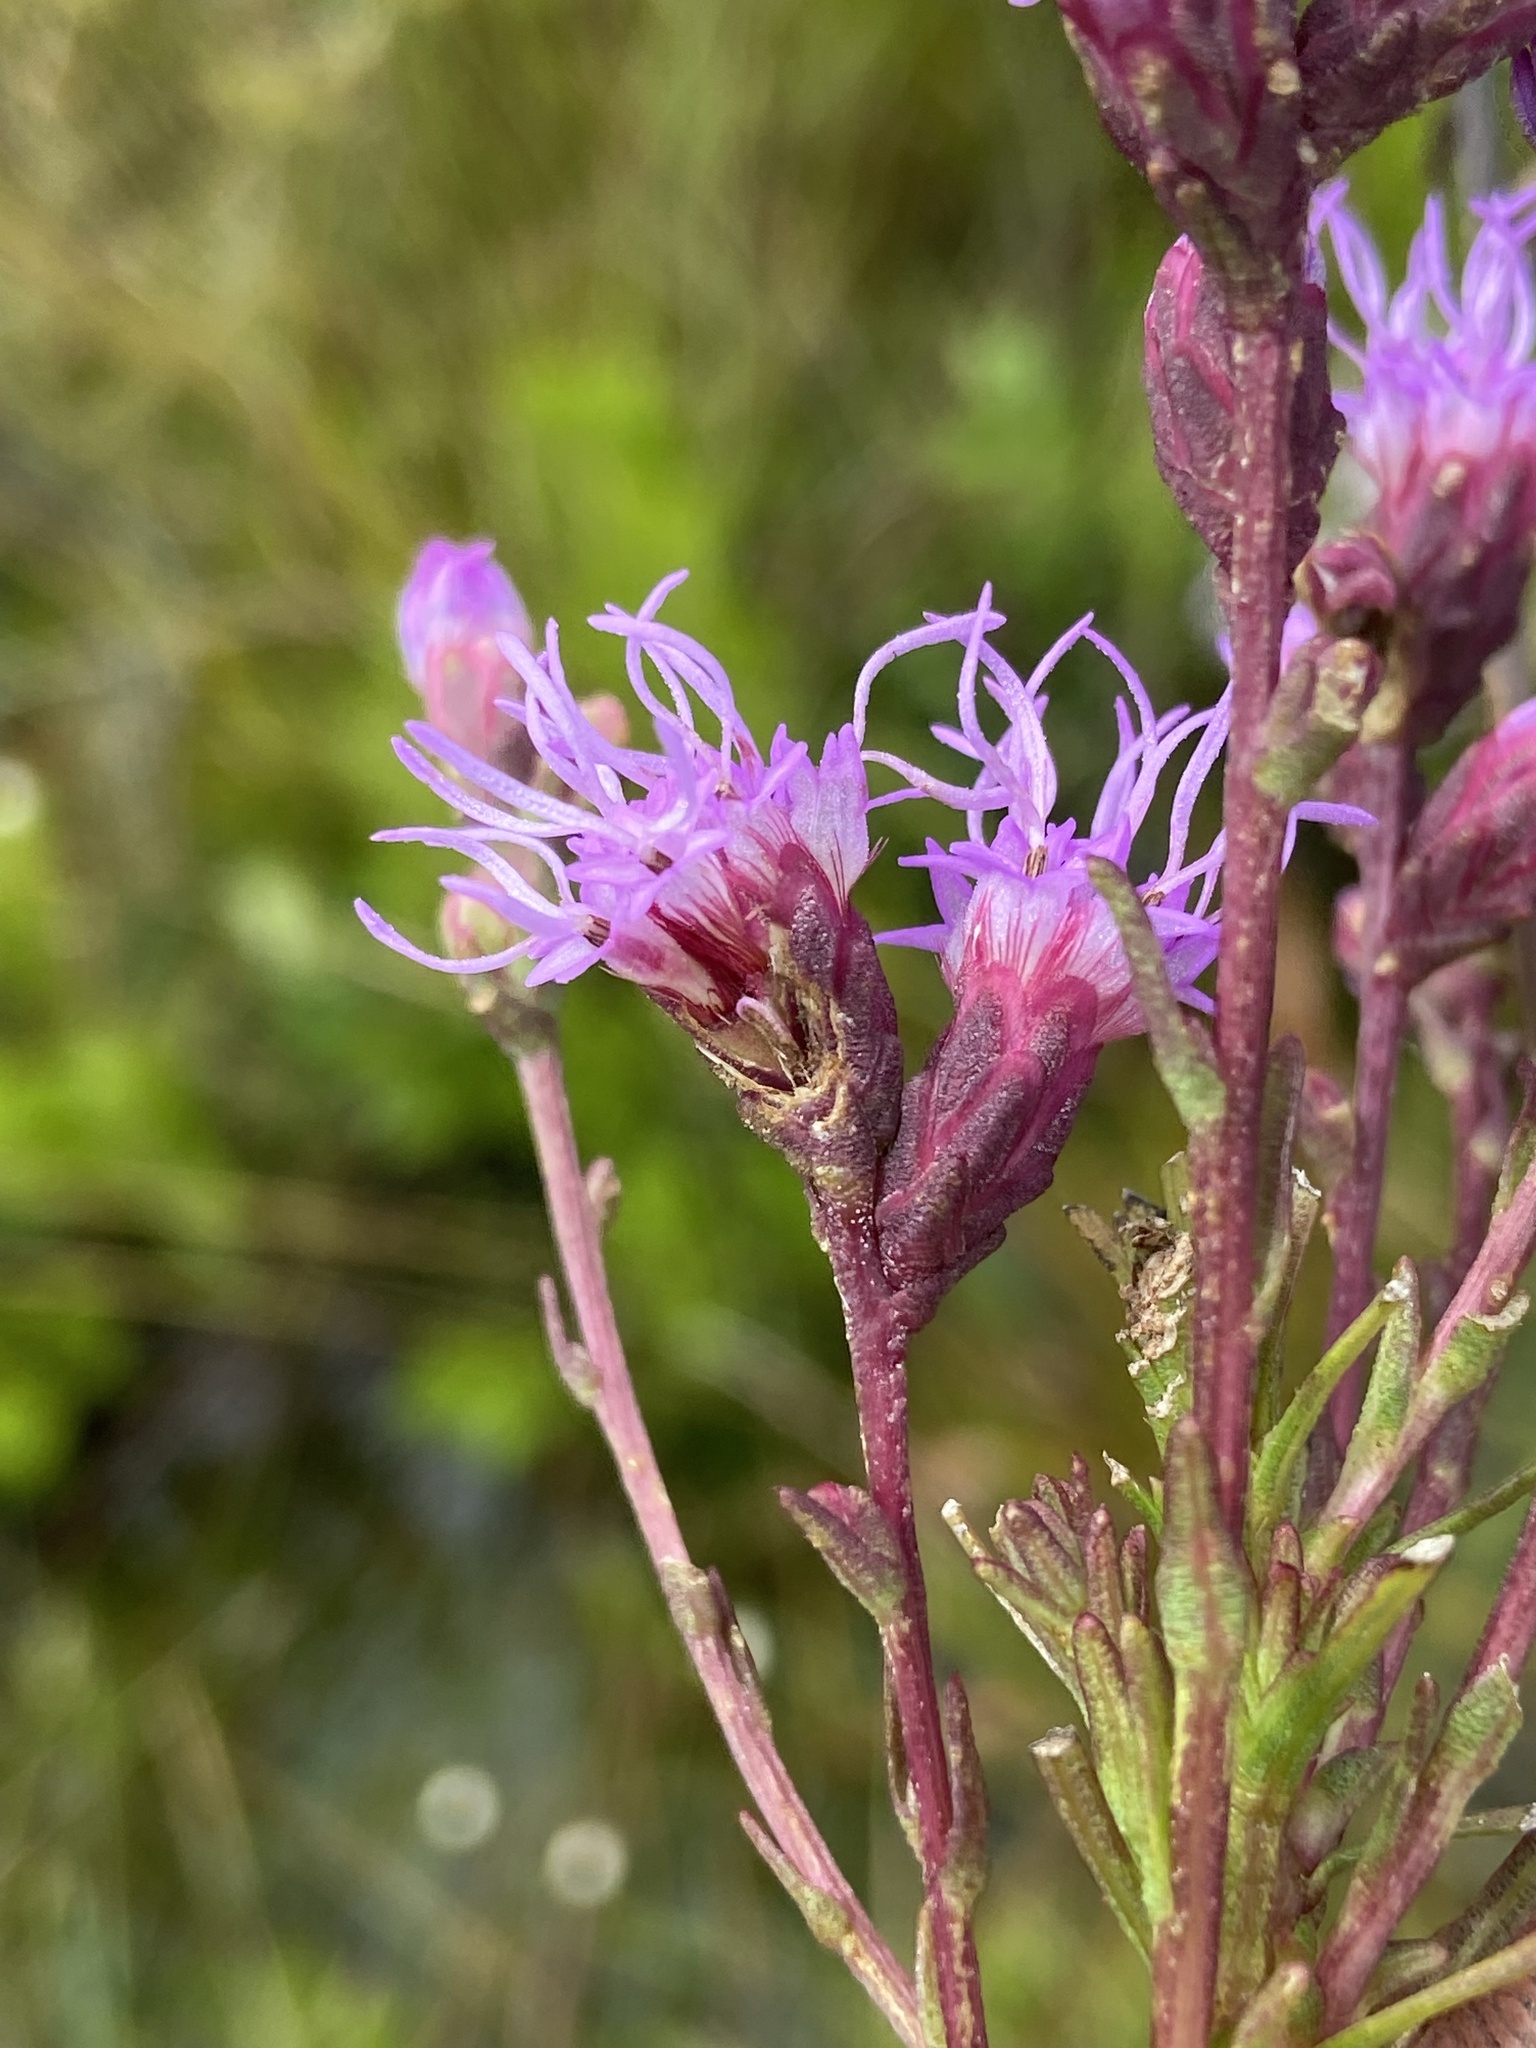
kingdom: Plantae
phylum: Tracheophyta
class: Magnoliopsida
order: Asterales
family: Asteraceae
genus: Liatris
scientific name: Liatris spicata
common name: Florist gayfeather
